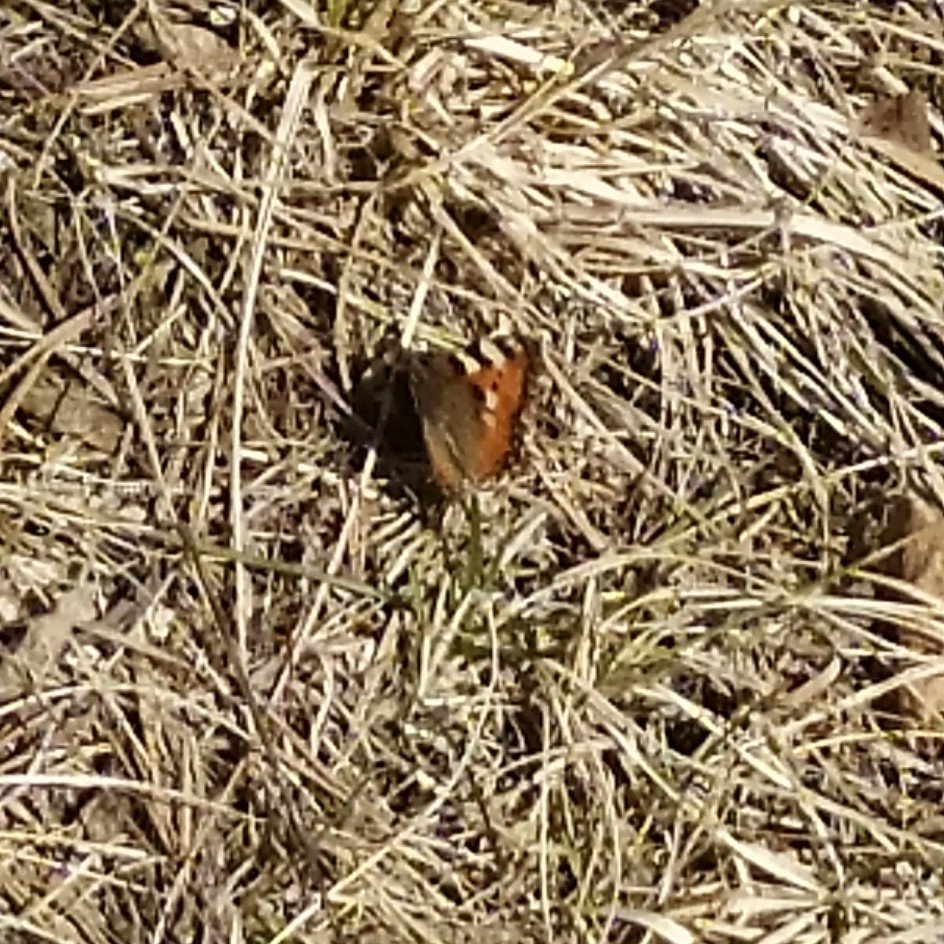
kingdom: Animalia
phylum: Arthropoda
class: Insecta
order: Lepidoptera
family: Nymphalidae
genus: Aglais
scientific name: Aglais urticae
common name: Small tortoiseshell
